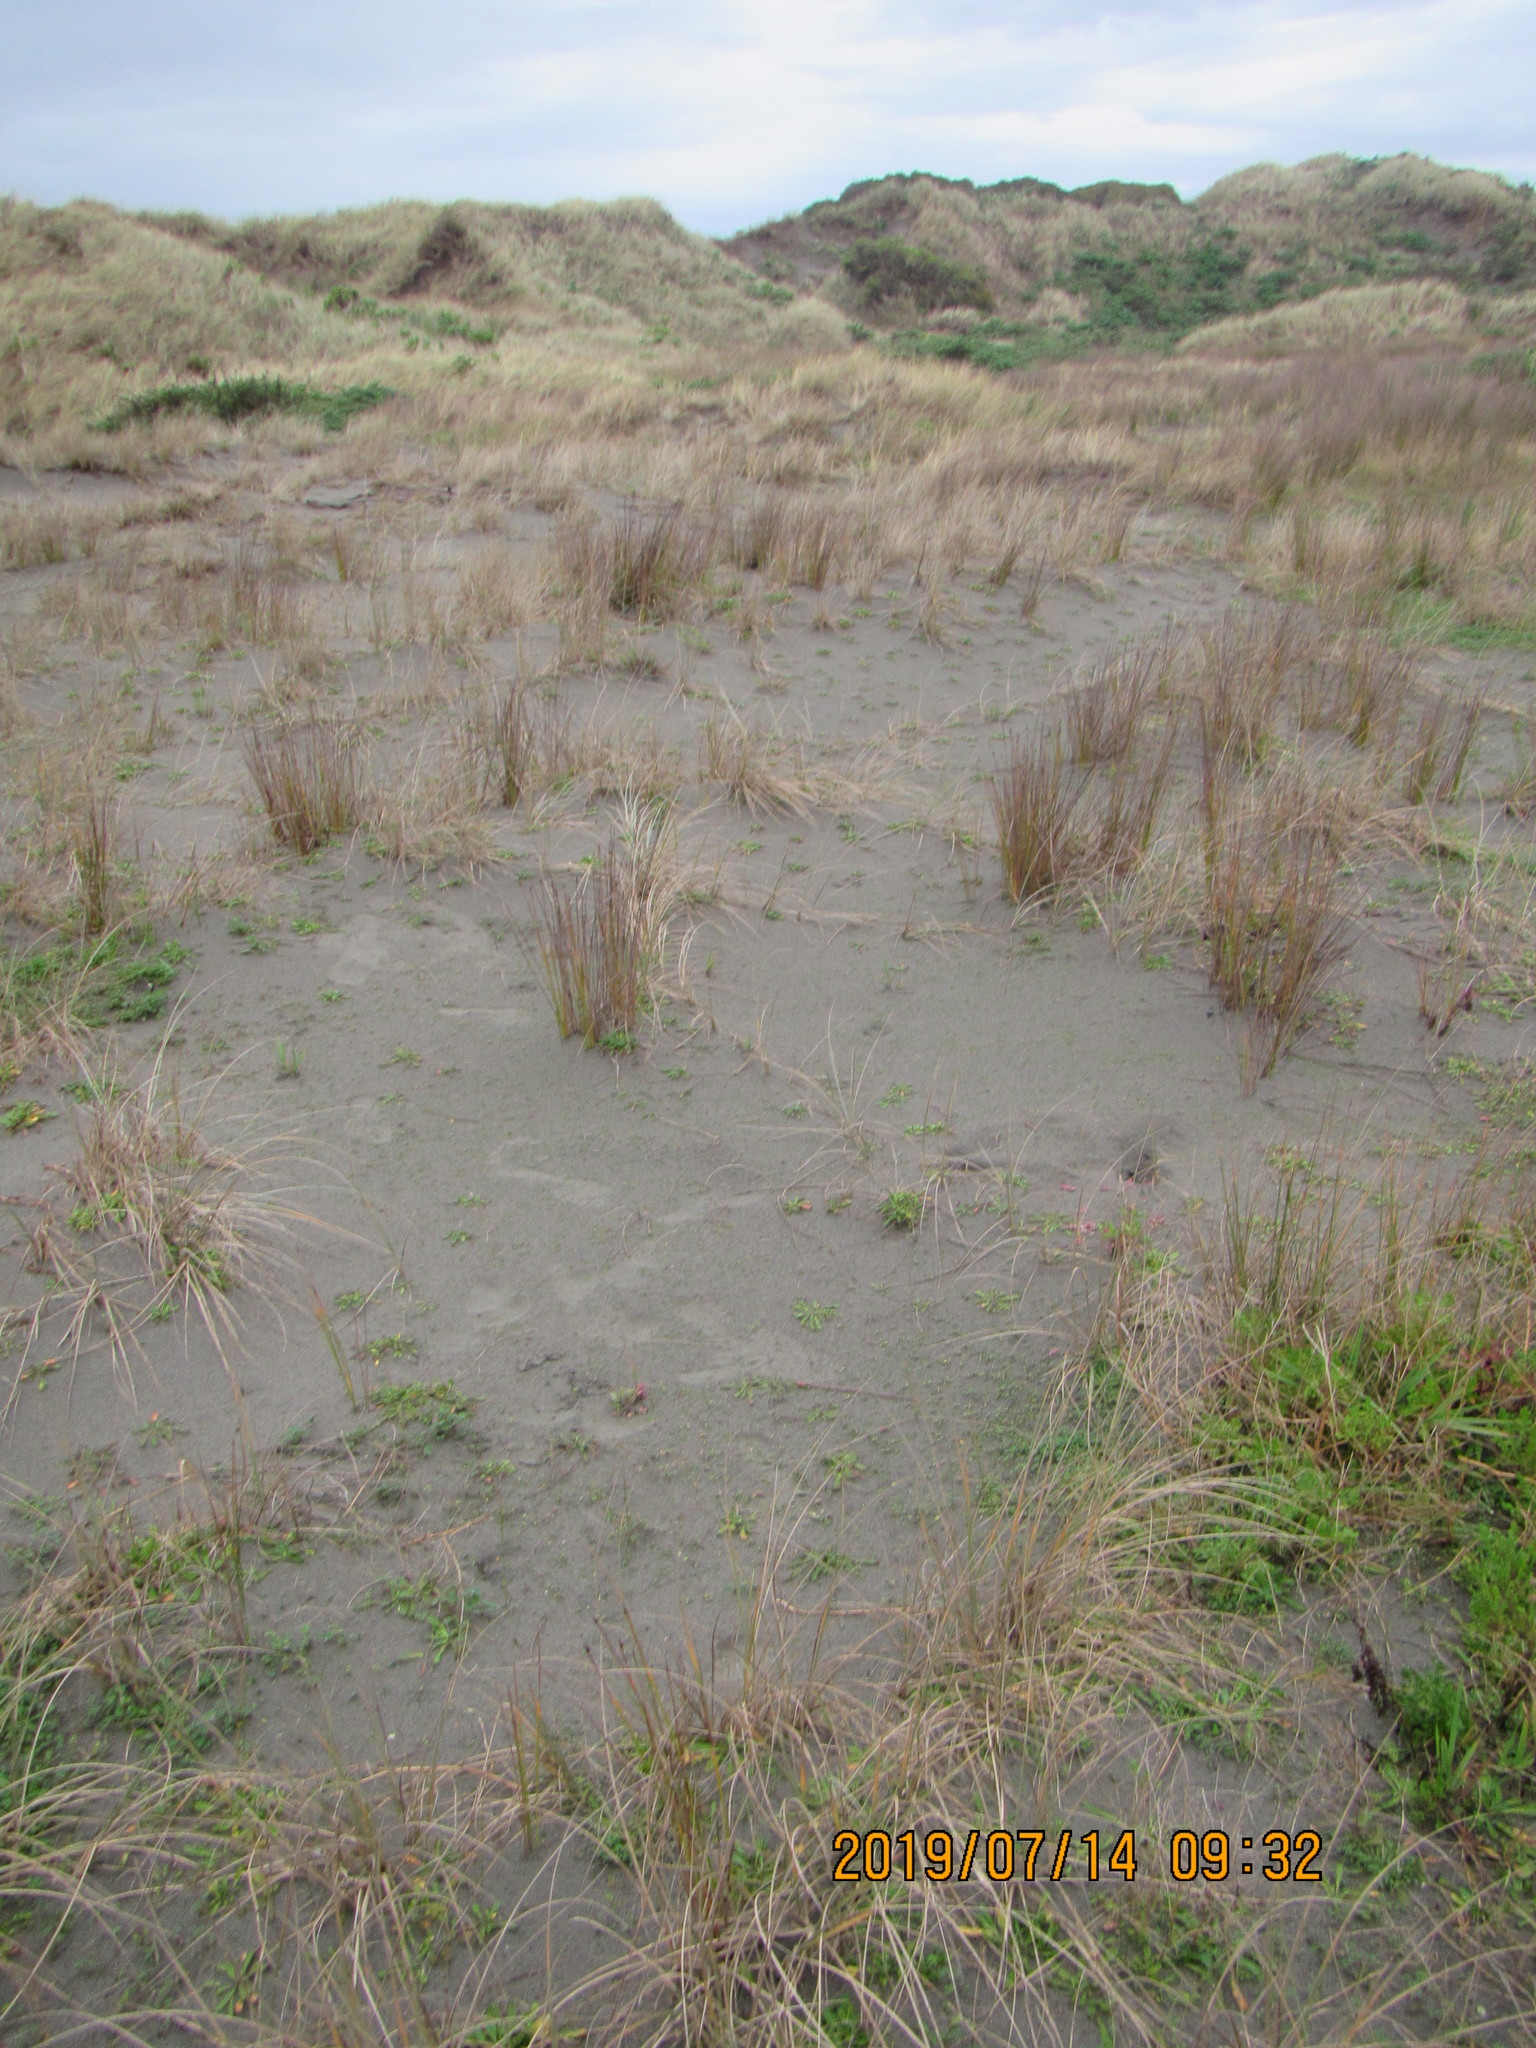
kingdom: Plantae
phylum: Tracheophyta
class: Magnoliopsida
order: Asterales
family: Goodeniaceae
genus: Goodenia
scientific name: Goodenia heenanii
